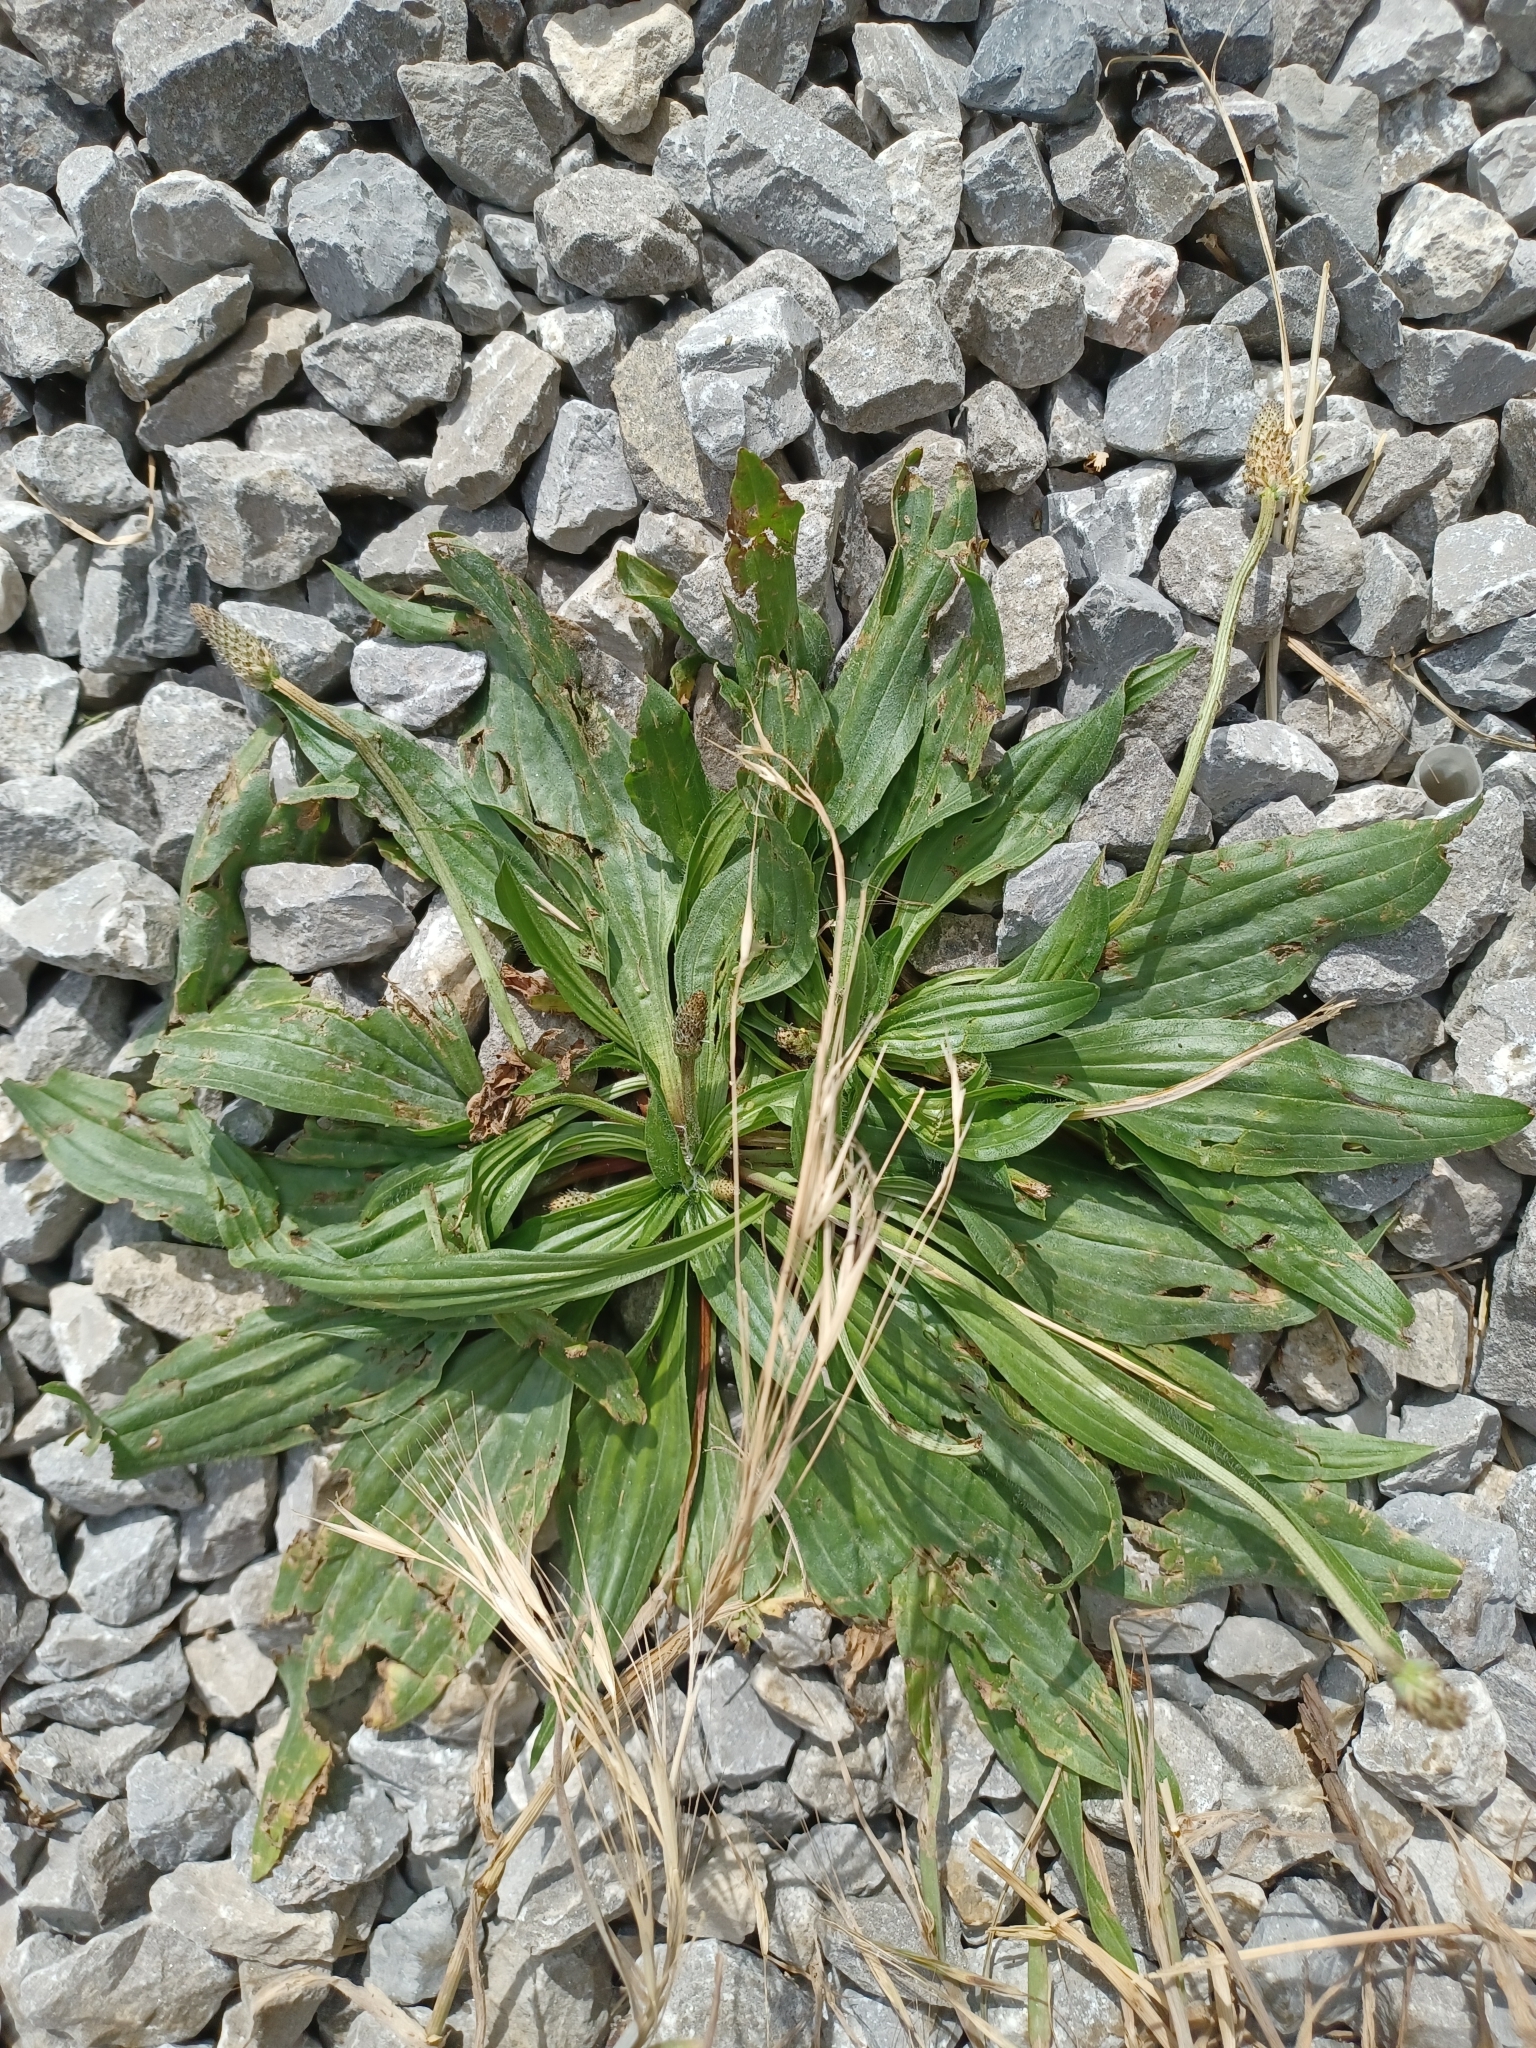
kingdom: Plantae
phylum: Tracheophyta
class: Magnoliopsida
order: Lamiales
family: Plantaginaceae
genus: Plantago
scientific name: Plantago lanceolata
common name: Ribwort plantain
